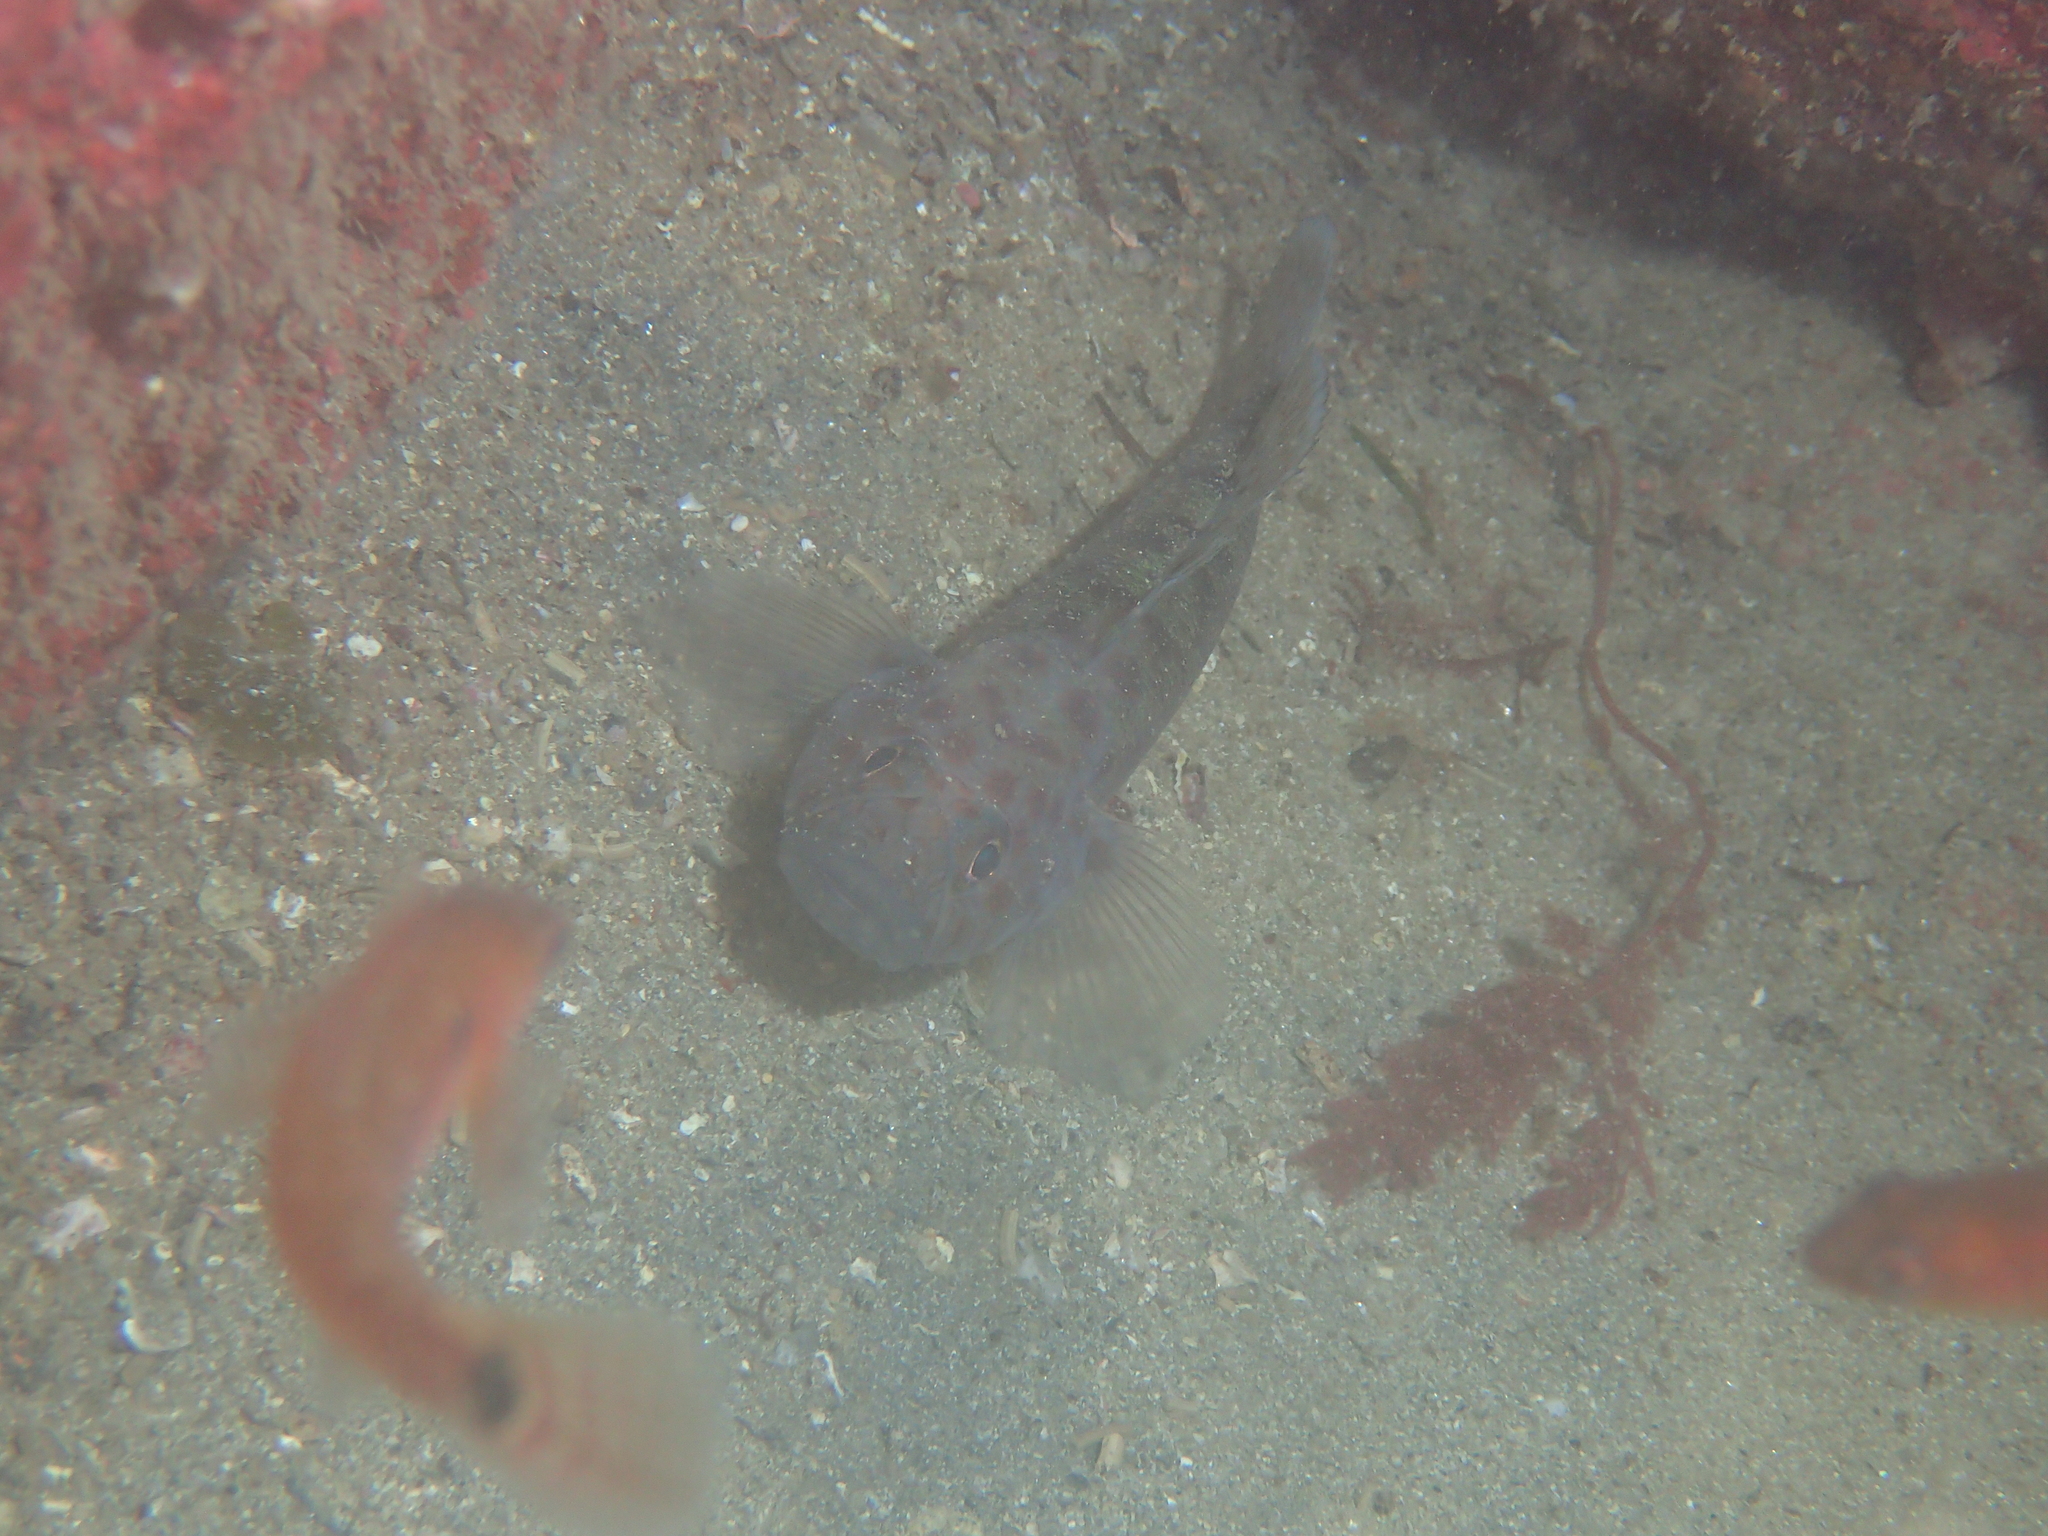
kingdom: Animalia
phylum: Chordata
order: Perciformes
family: Gobiidae
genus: Thorogobius
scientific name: Thorogobius ephippiatus
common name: Leopard-spotted goby
